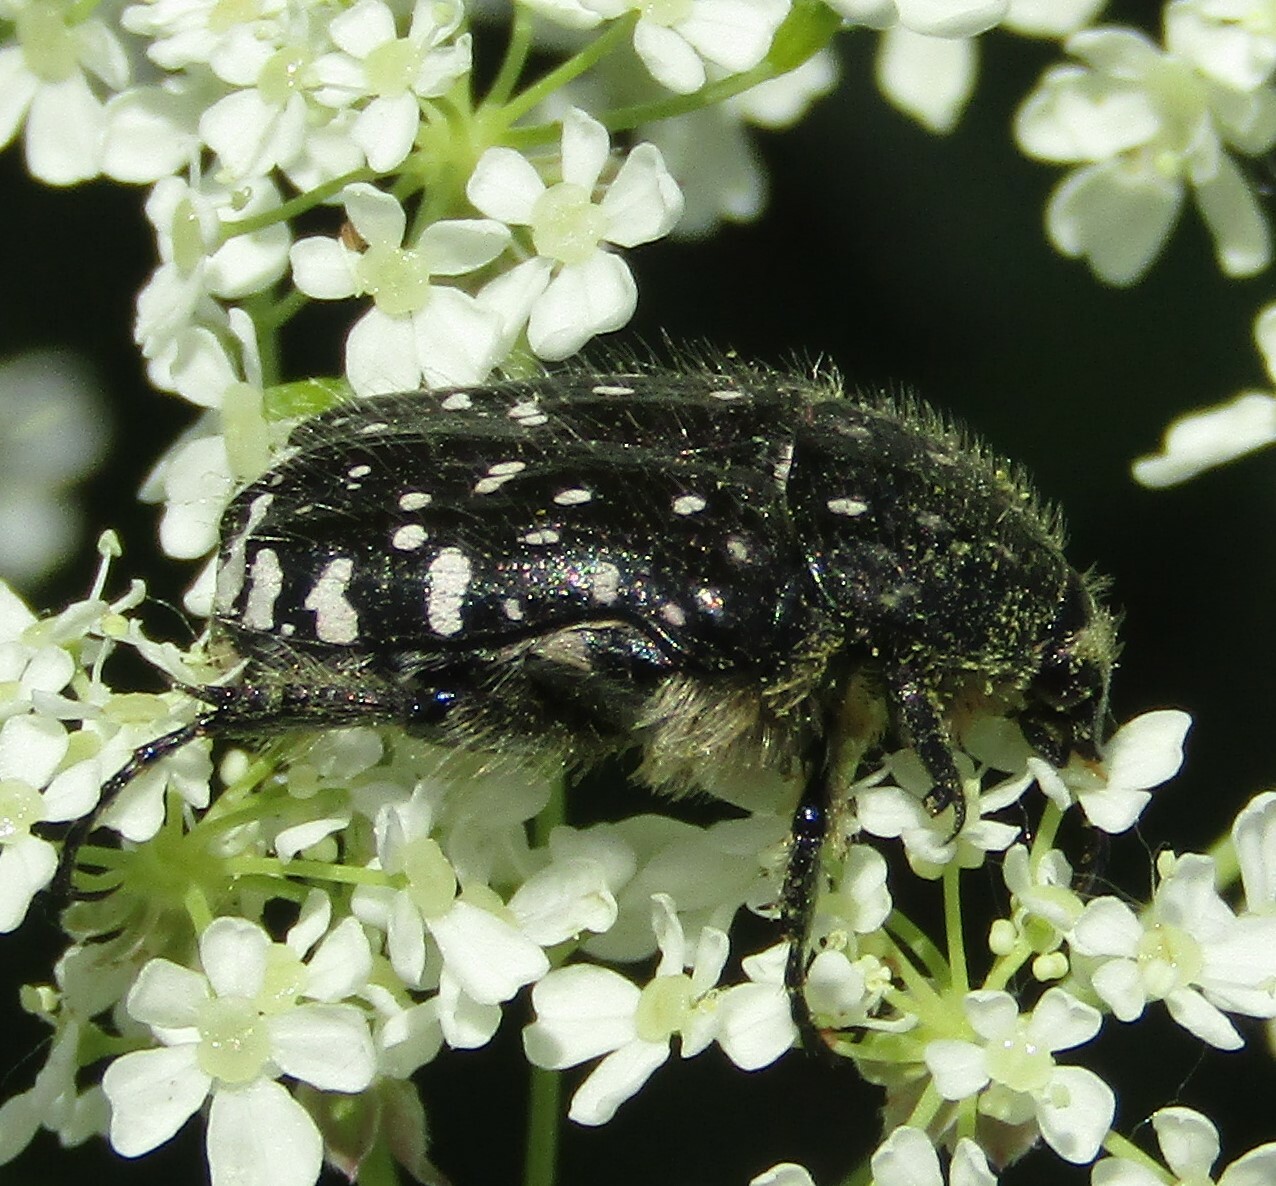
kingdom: Animalia
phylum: Arthropoda
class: Insecta
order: Coleoptera
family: Scarabaeidae
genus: Oxythyrea
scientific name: Oxythyrea funesta
